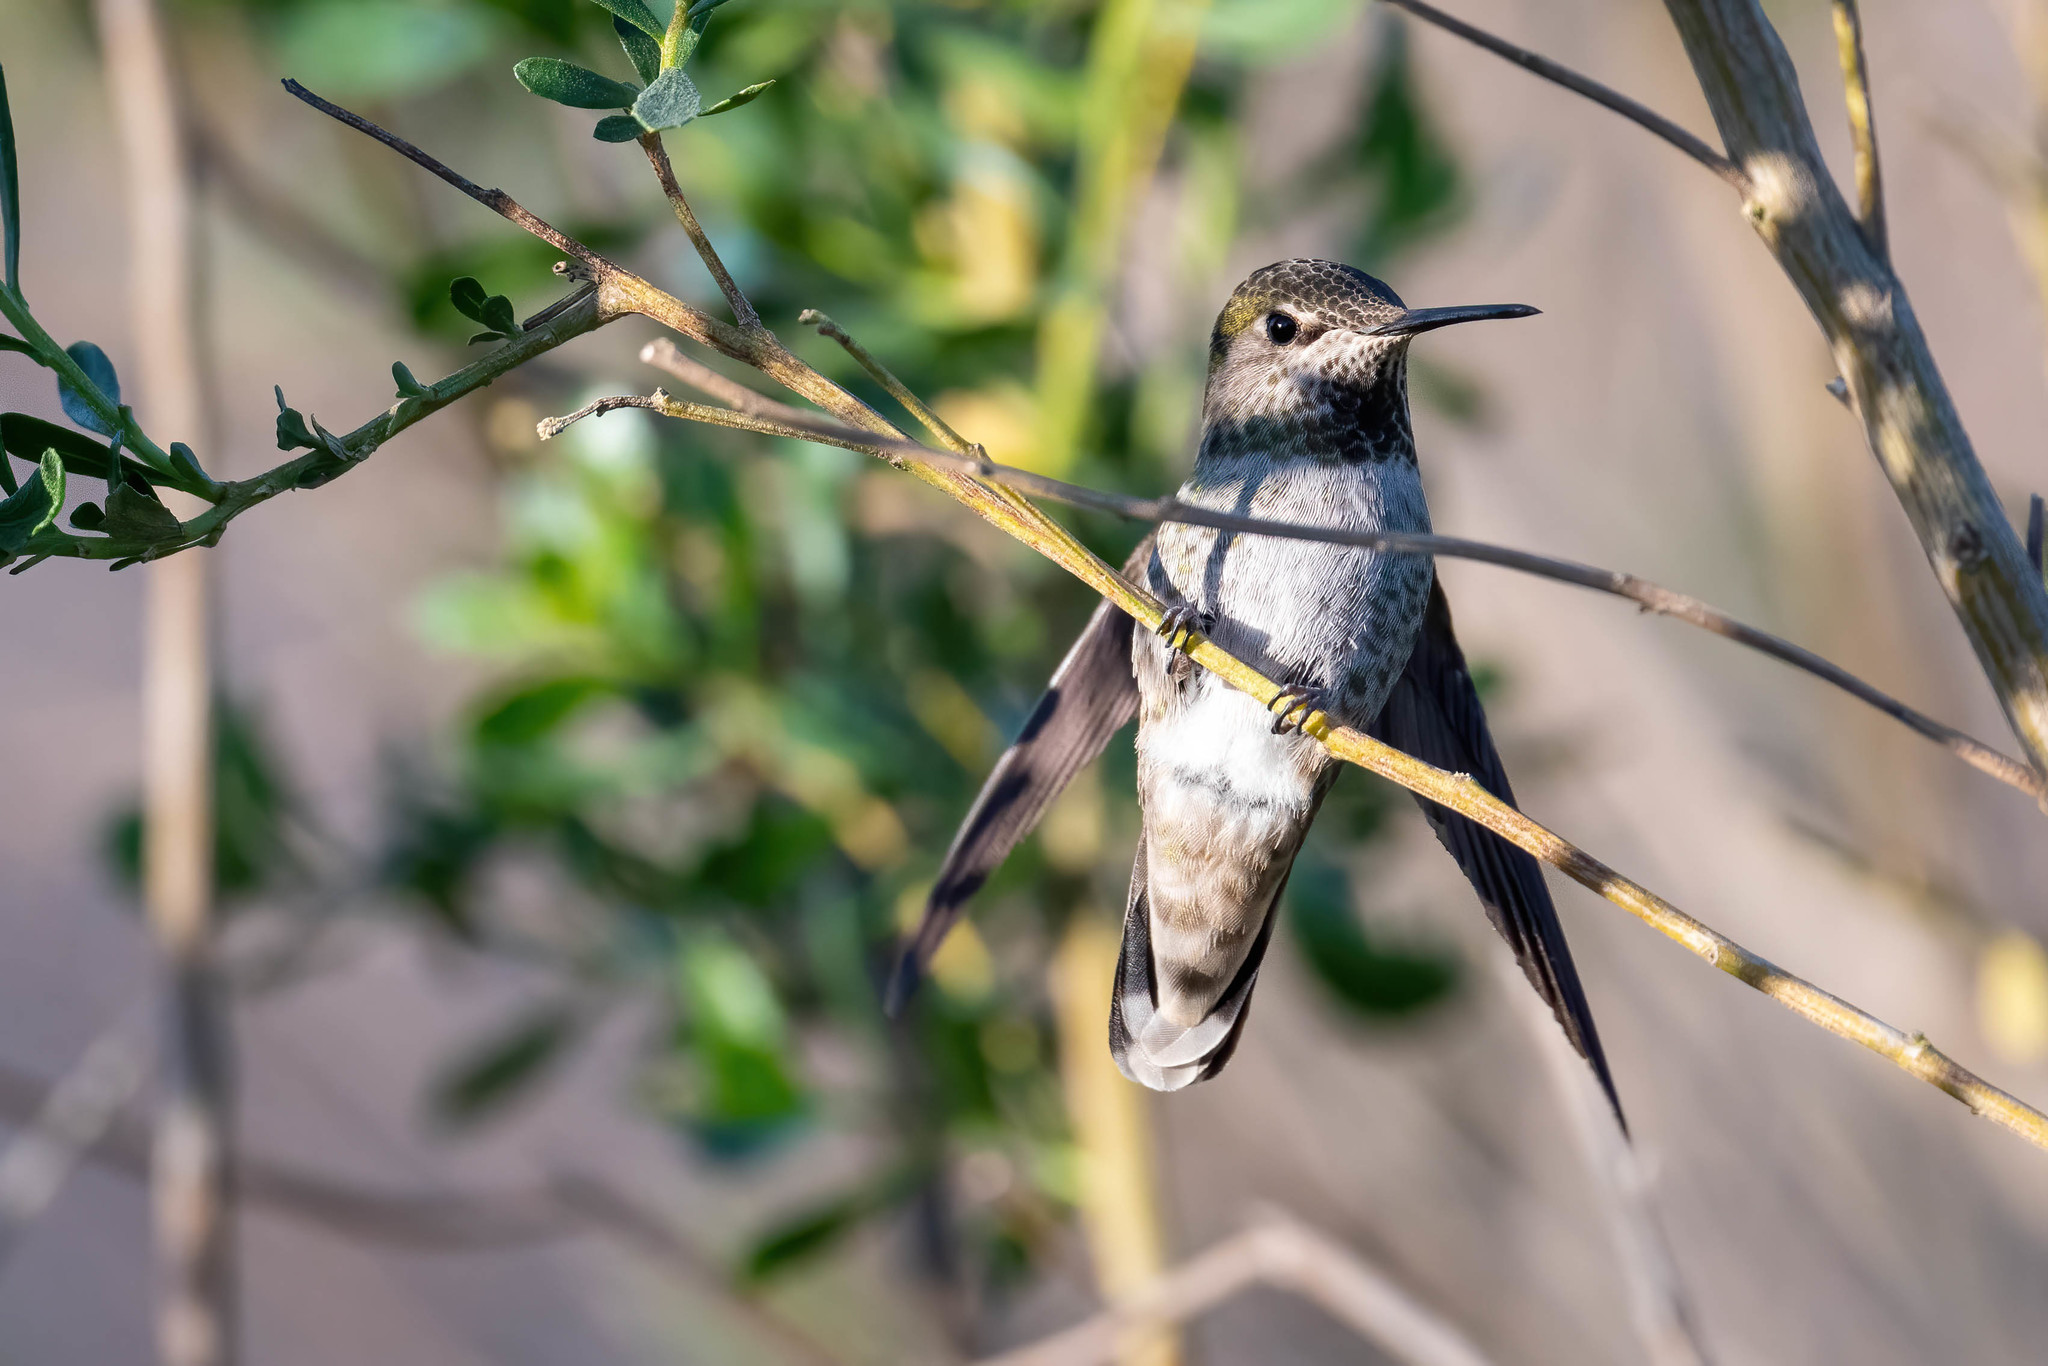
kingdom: Animalia
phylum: Chordata
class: Aves
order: Apodiformes
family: Trochilidae
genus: Calypte
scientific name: Calypte anna
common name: Anna's hummingbird
